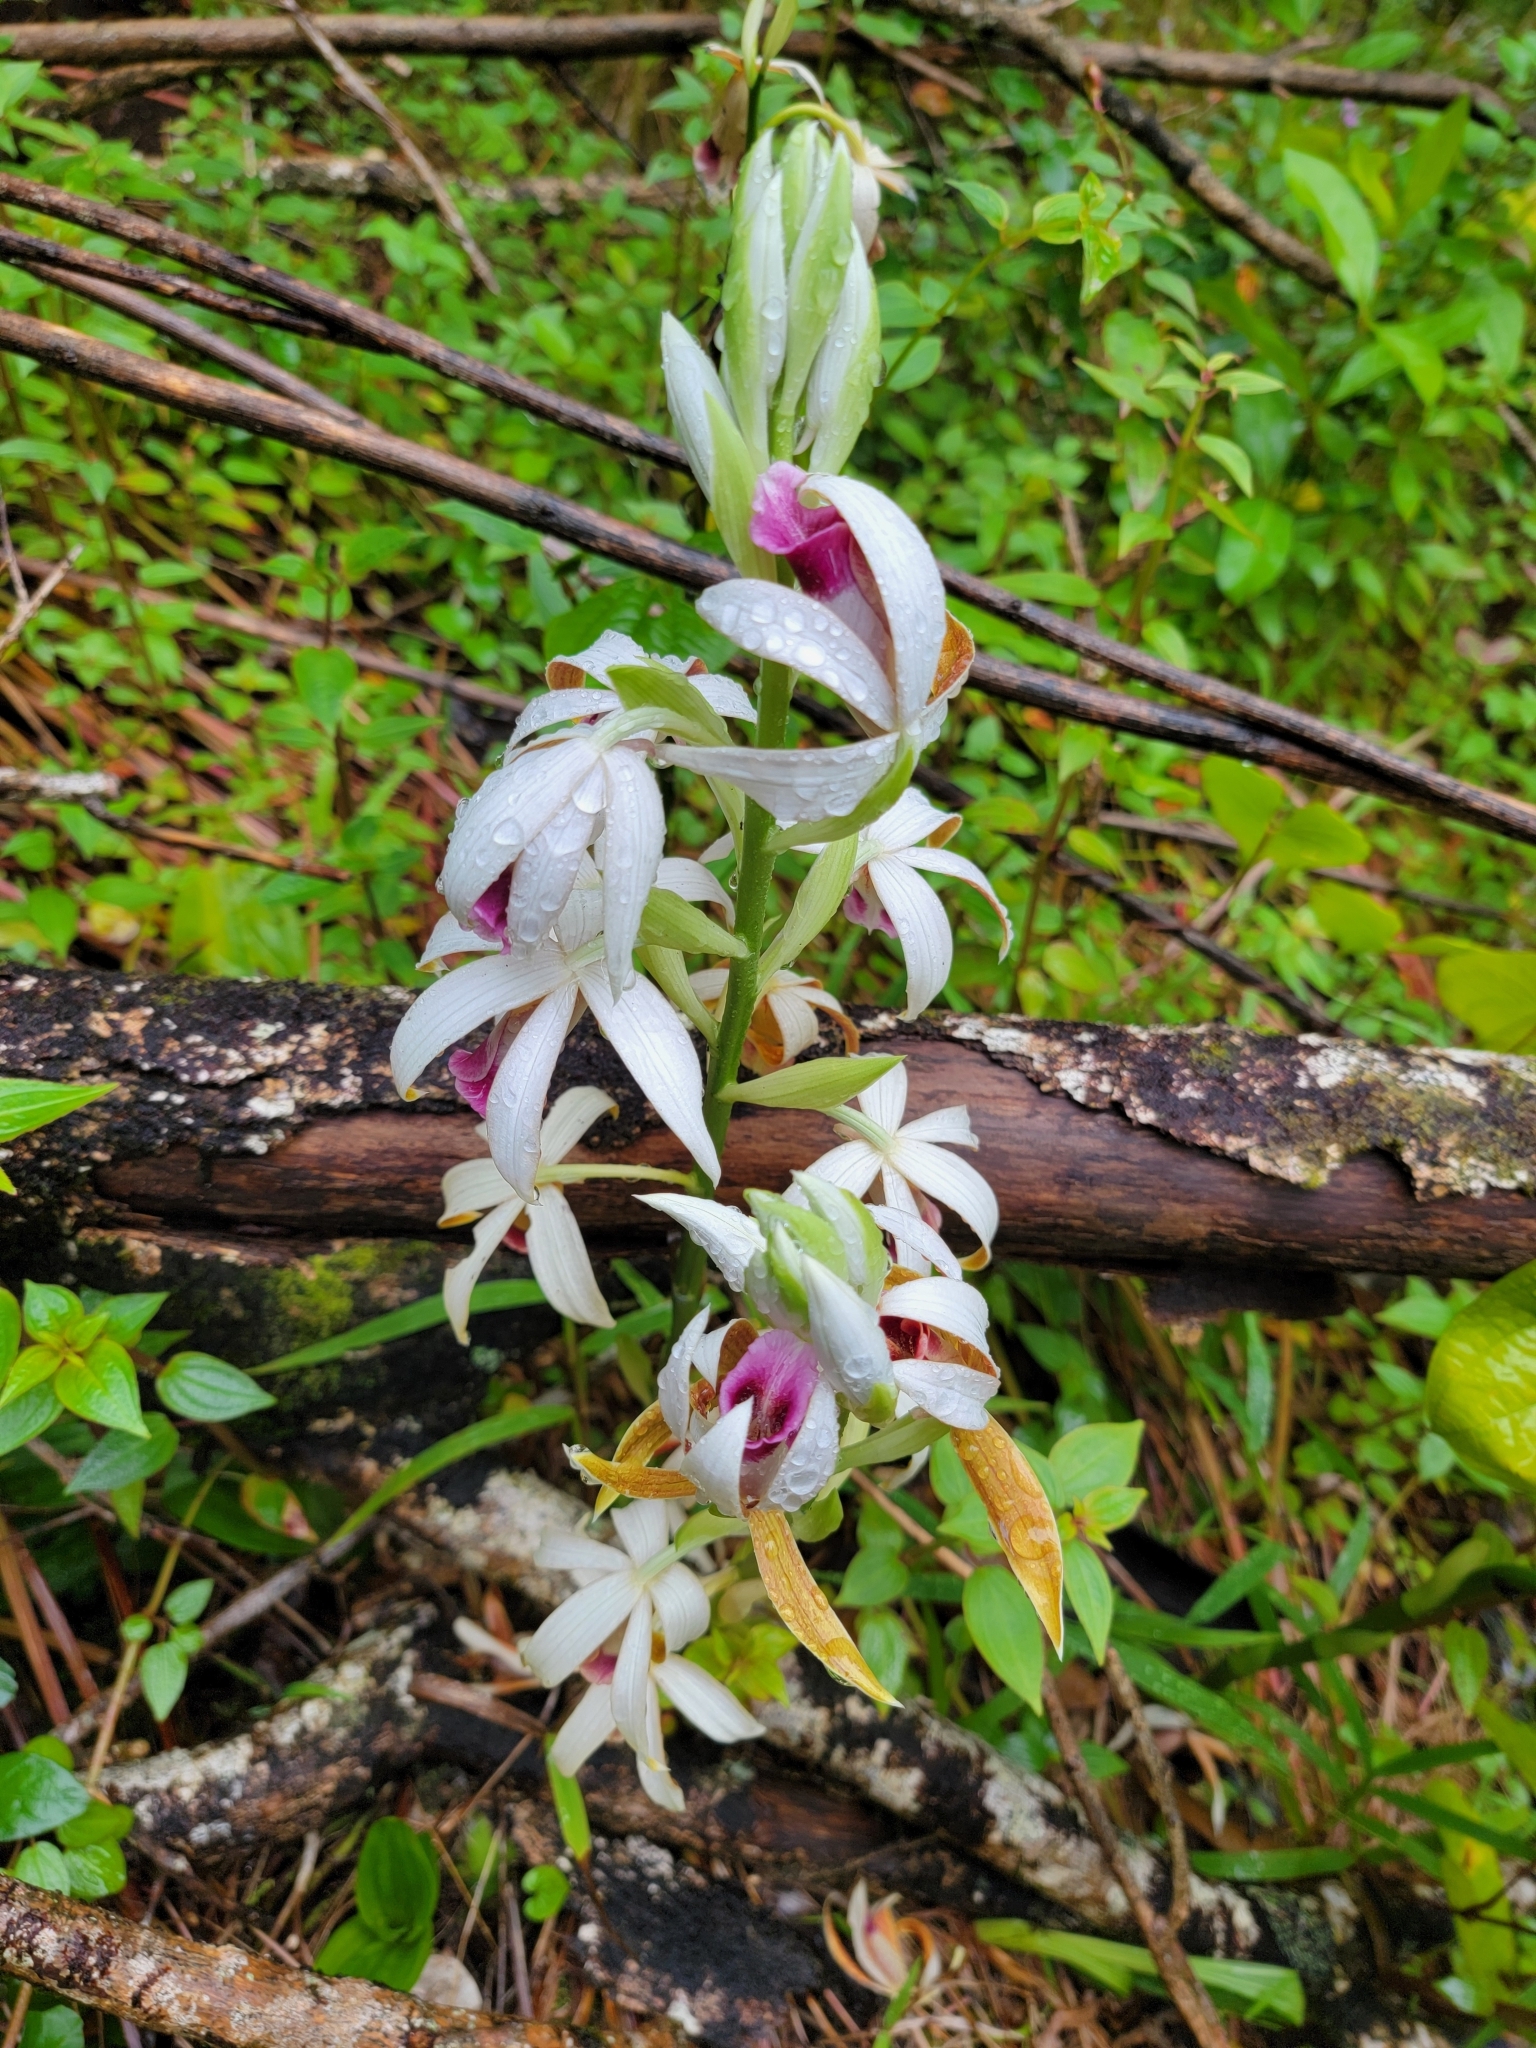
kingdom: Plantae
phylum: Tracheophyta
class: Liliopsida
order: Asparagales
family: Orchidaceae
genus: Calanthe
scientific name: Calanthe tankervilleae
